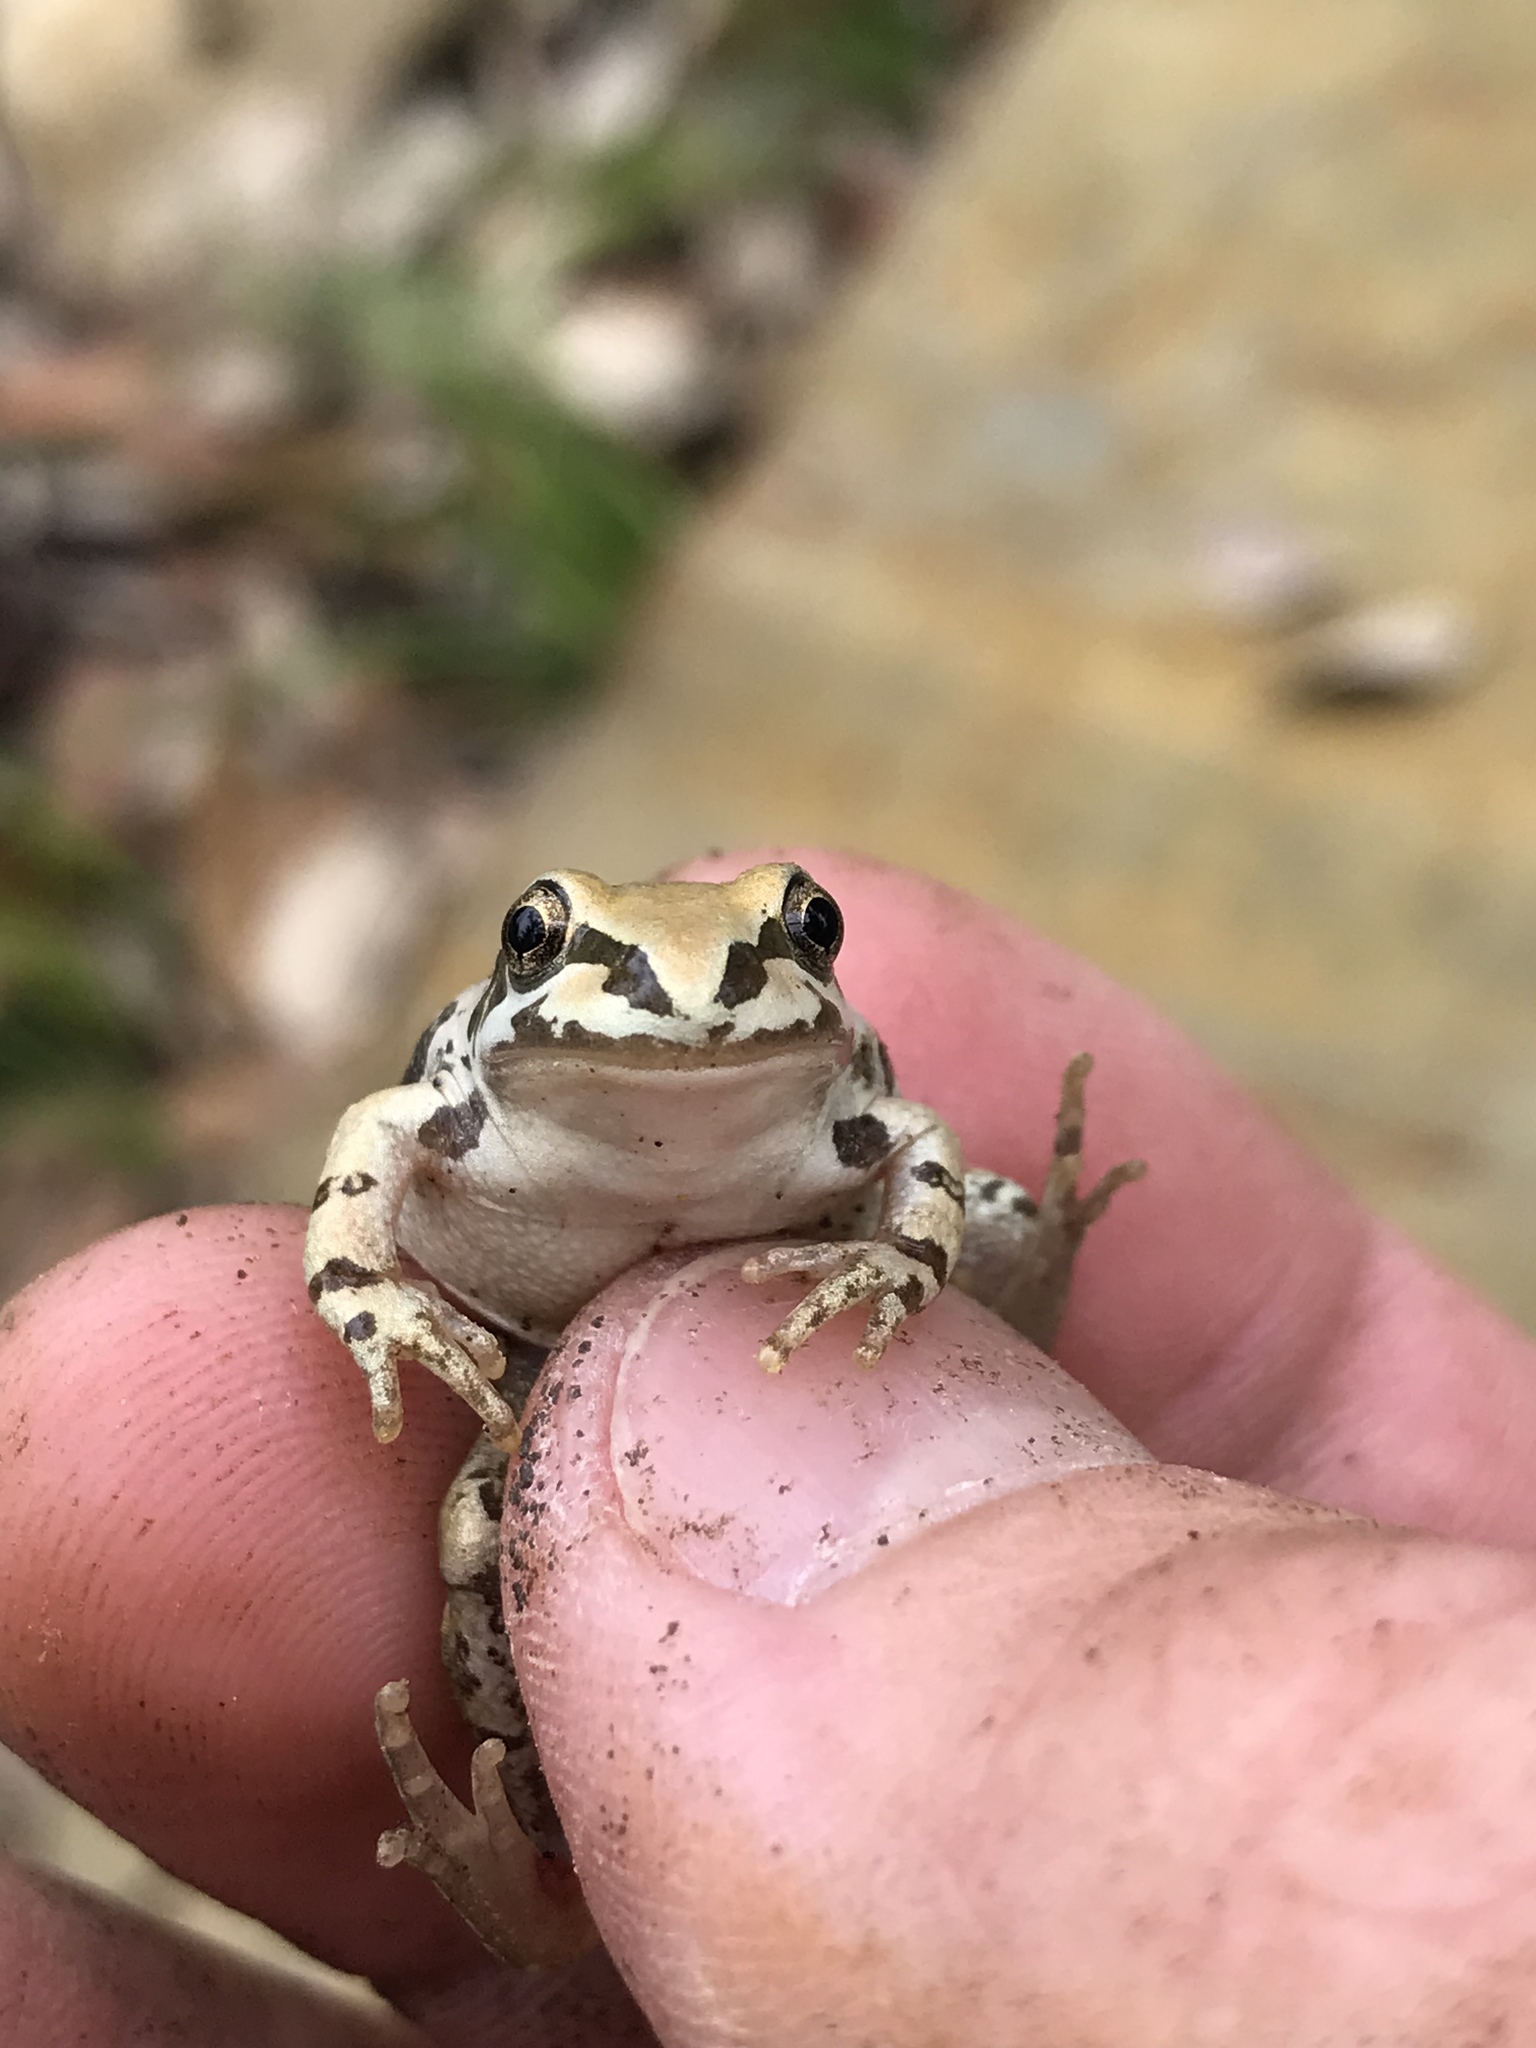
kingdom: Animalia
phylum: Chordata
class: Amphibia
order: Anura
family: Hylidae
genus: Pseudacris
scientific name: Pseudacris streckeri
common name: Strecker's chorus frog
